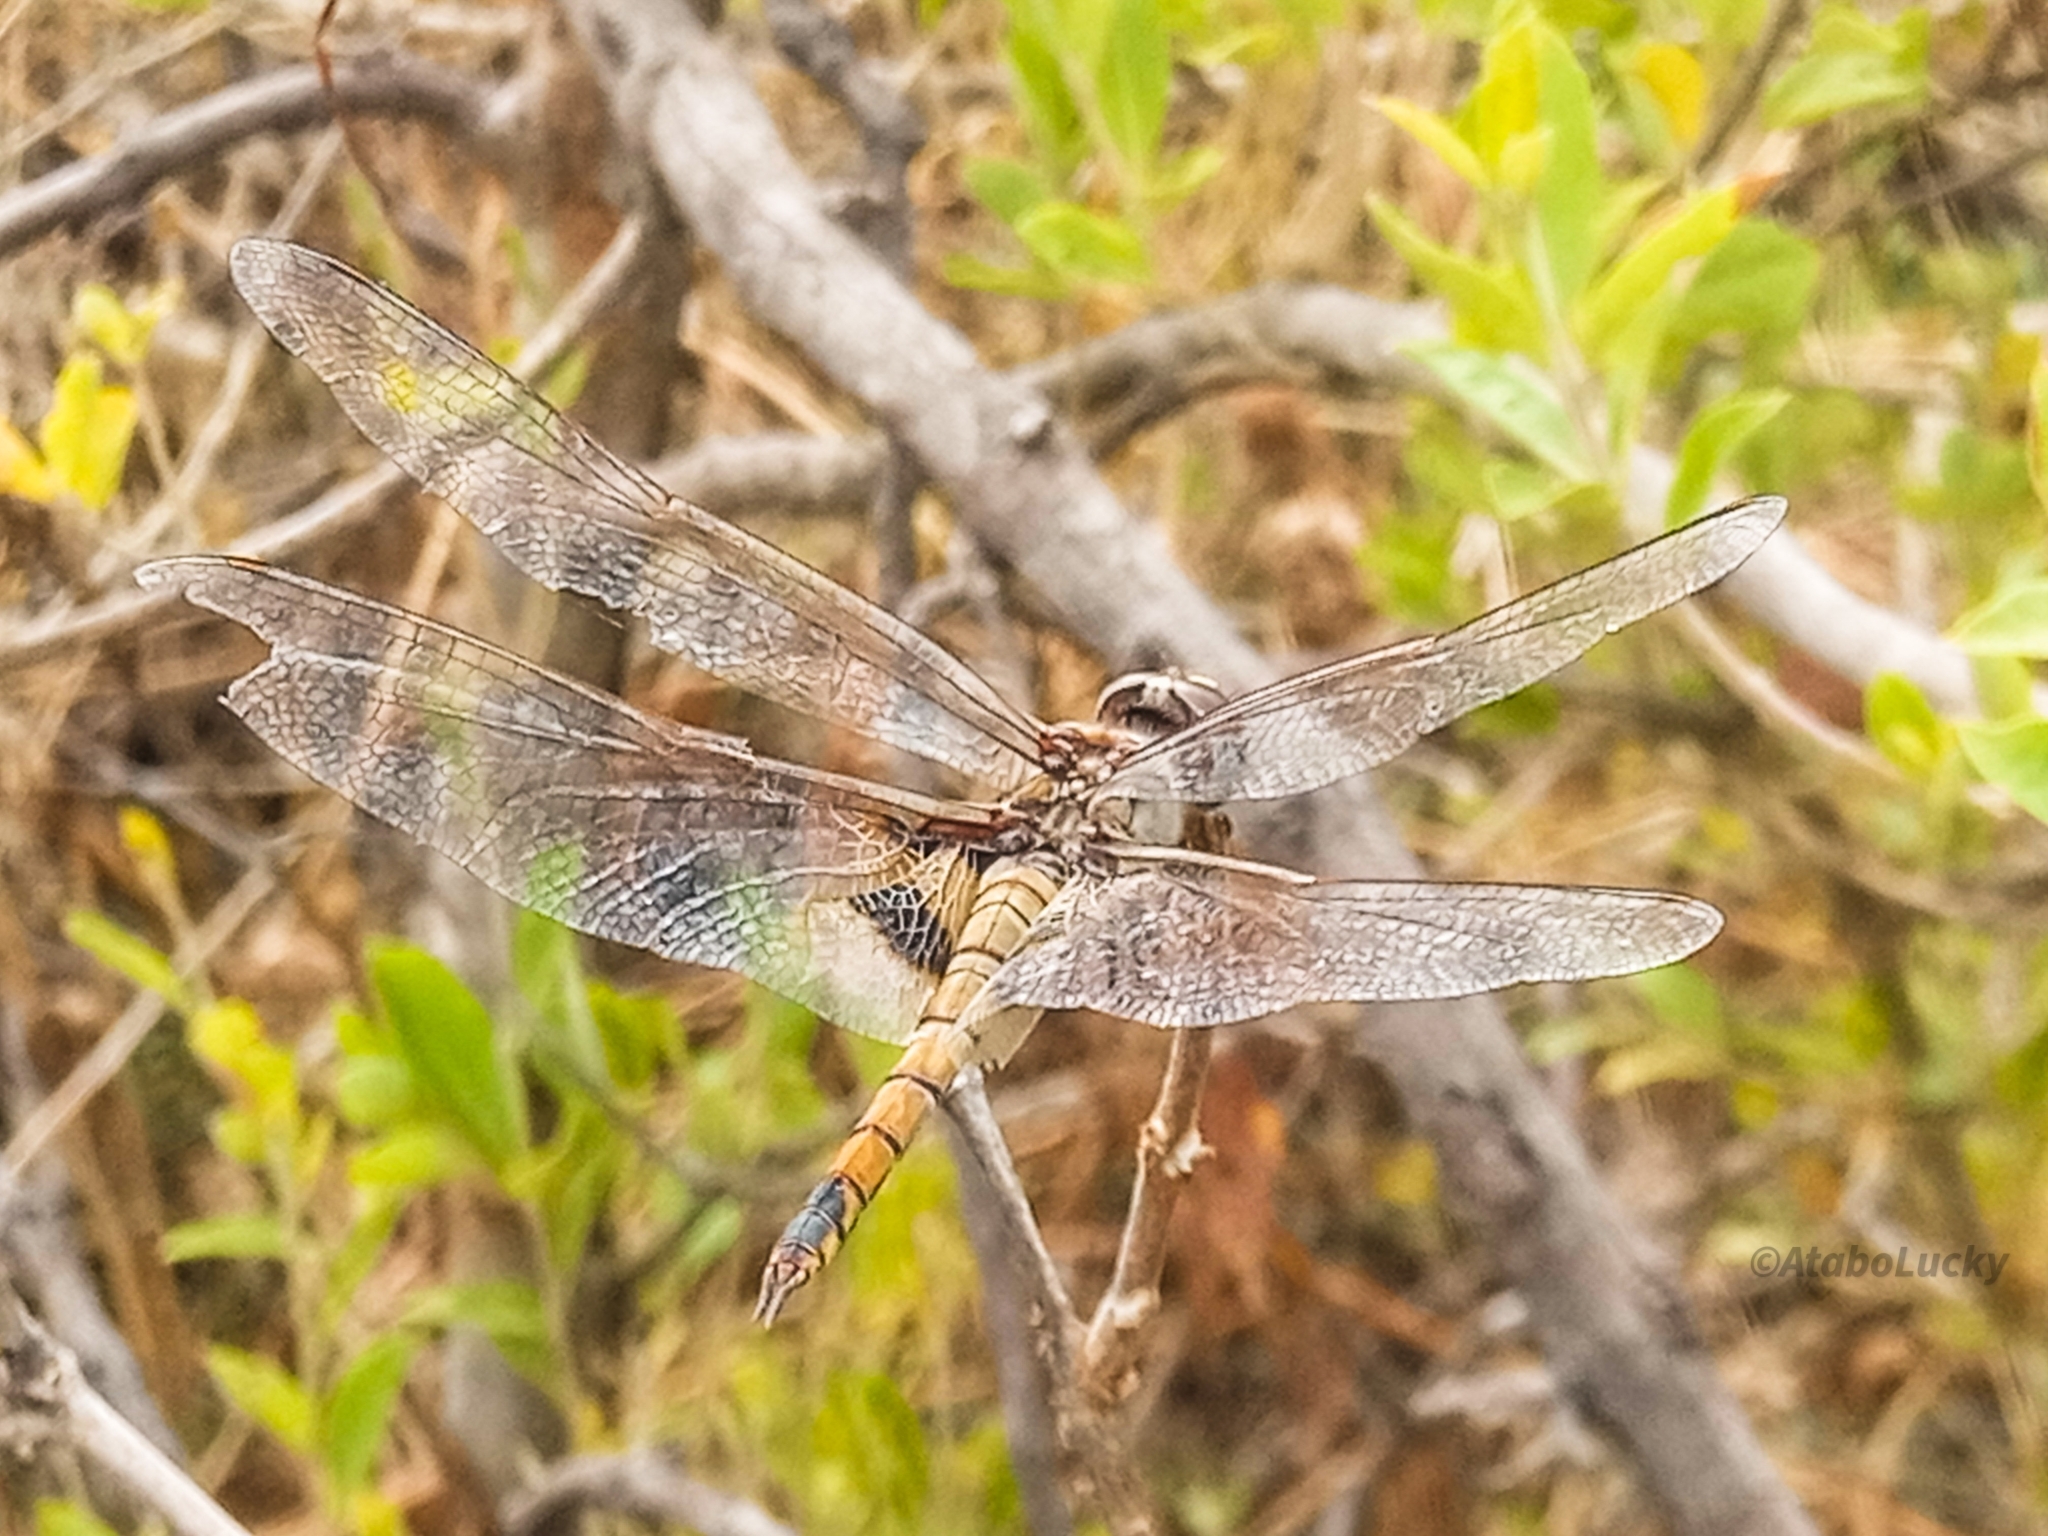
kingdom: Animalia
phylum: Arthropoda
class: Insecta
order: Odonata
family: Libellulidae
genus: Tramea
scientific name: Tramea basilaris
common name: Keyhole glider
